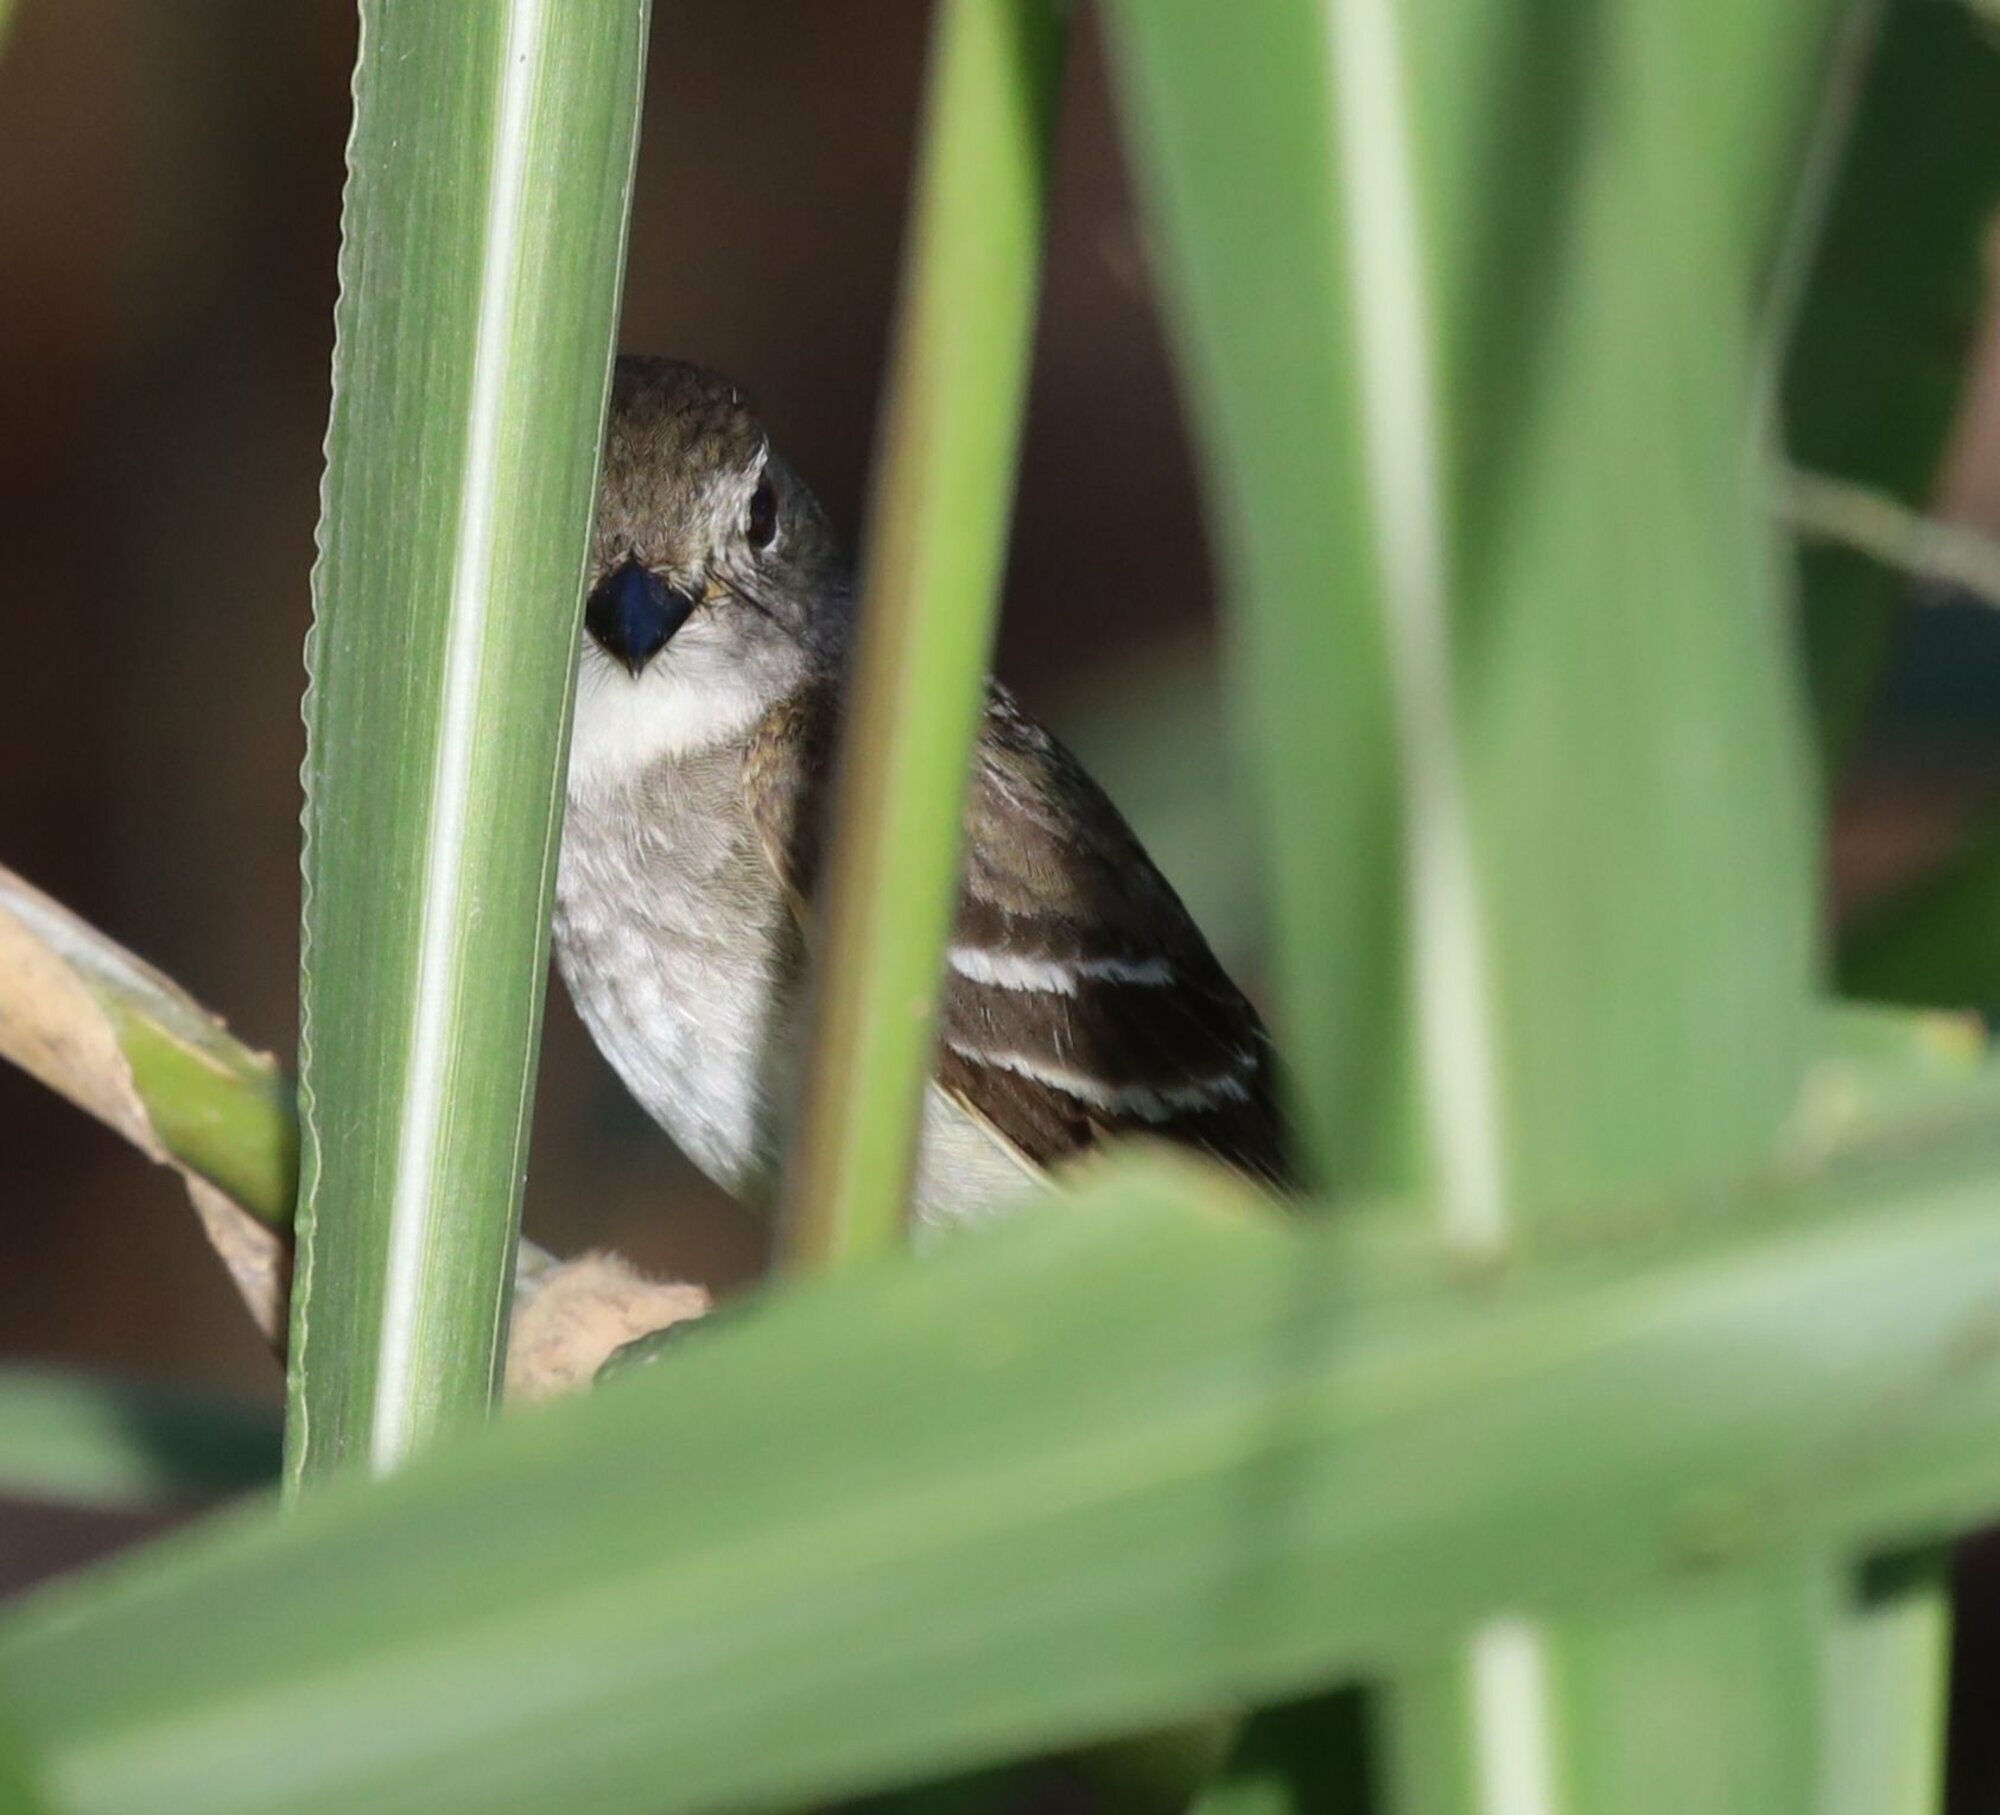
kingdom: Animalia
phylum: Chordata
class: Aves
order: Passeriformes
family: Tyrannidae
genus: Empidonax
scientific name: Empidonax
